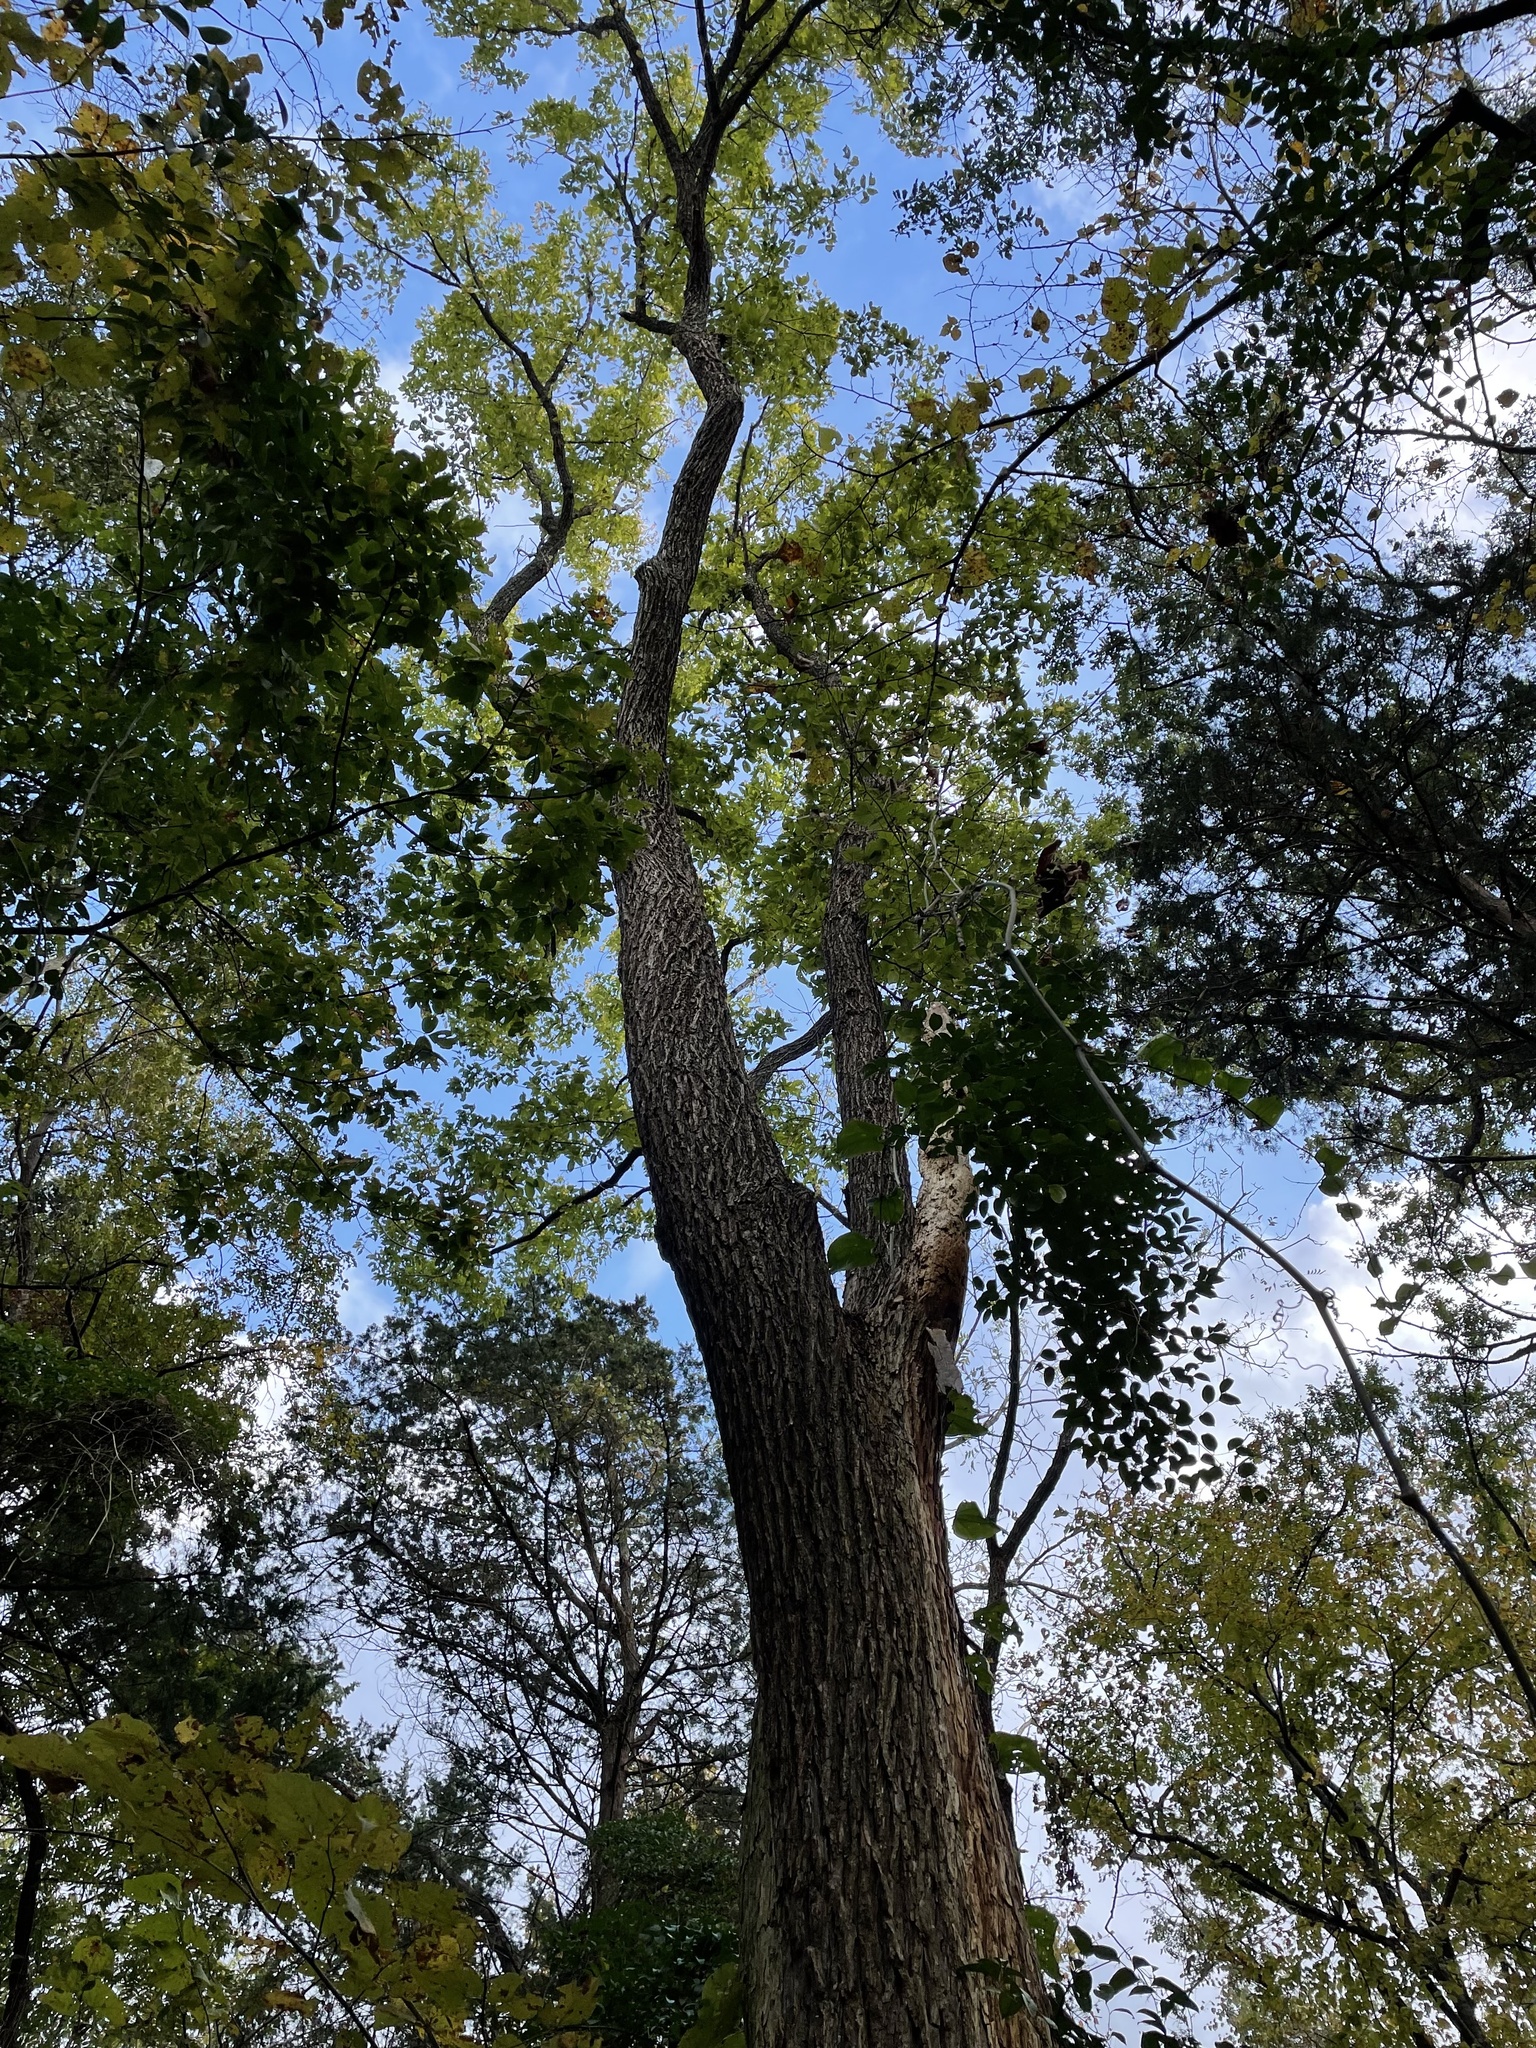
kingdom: Plantae
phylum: Tracheophyta
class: Magnoliopsida
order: Rosales
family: Ulmaceae
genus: Ulmus
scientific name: Ulmus americana
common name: American elm
